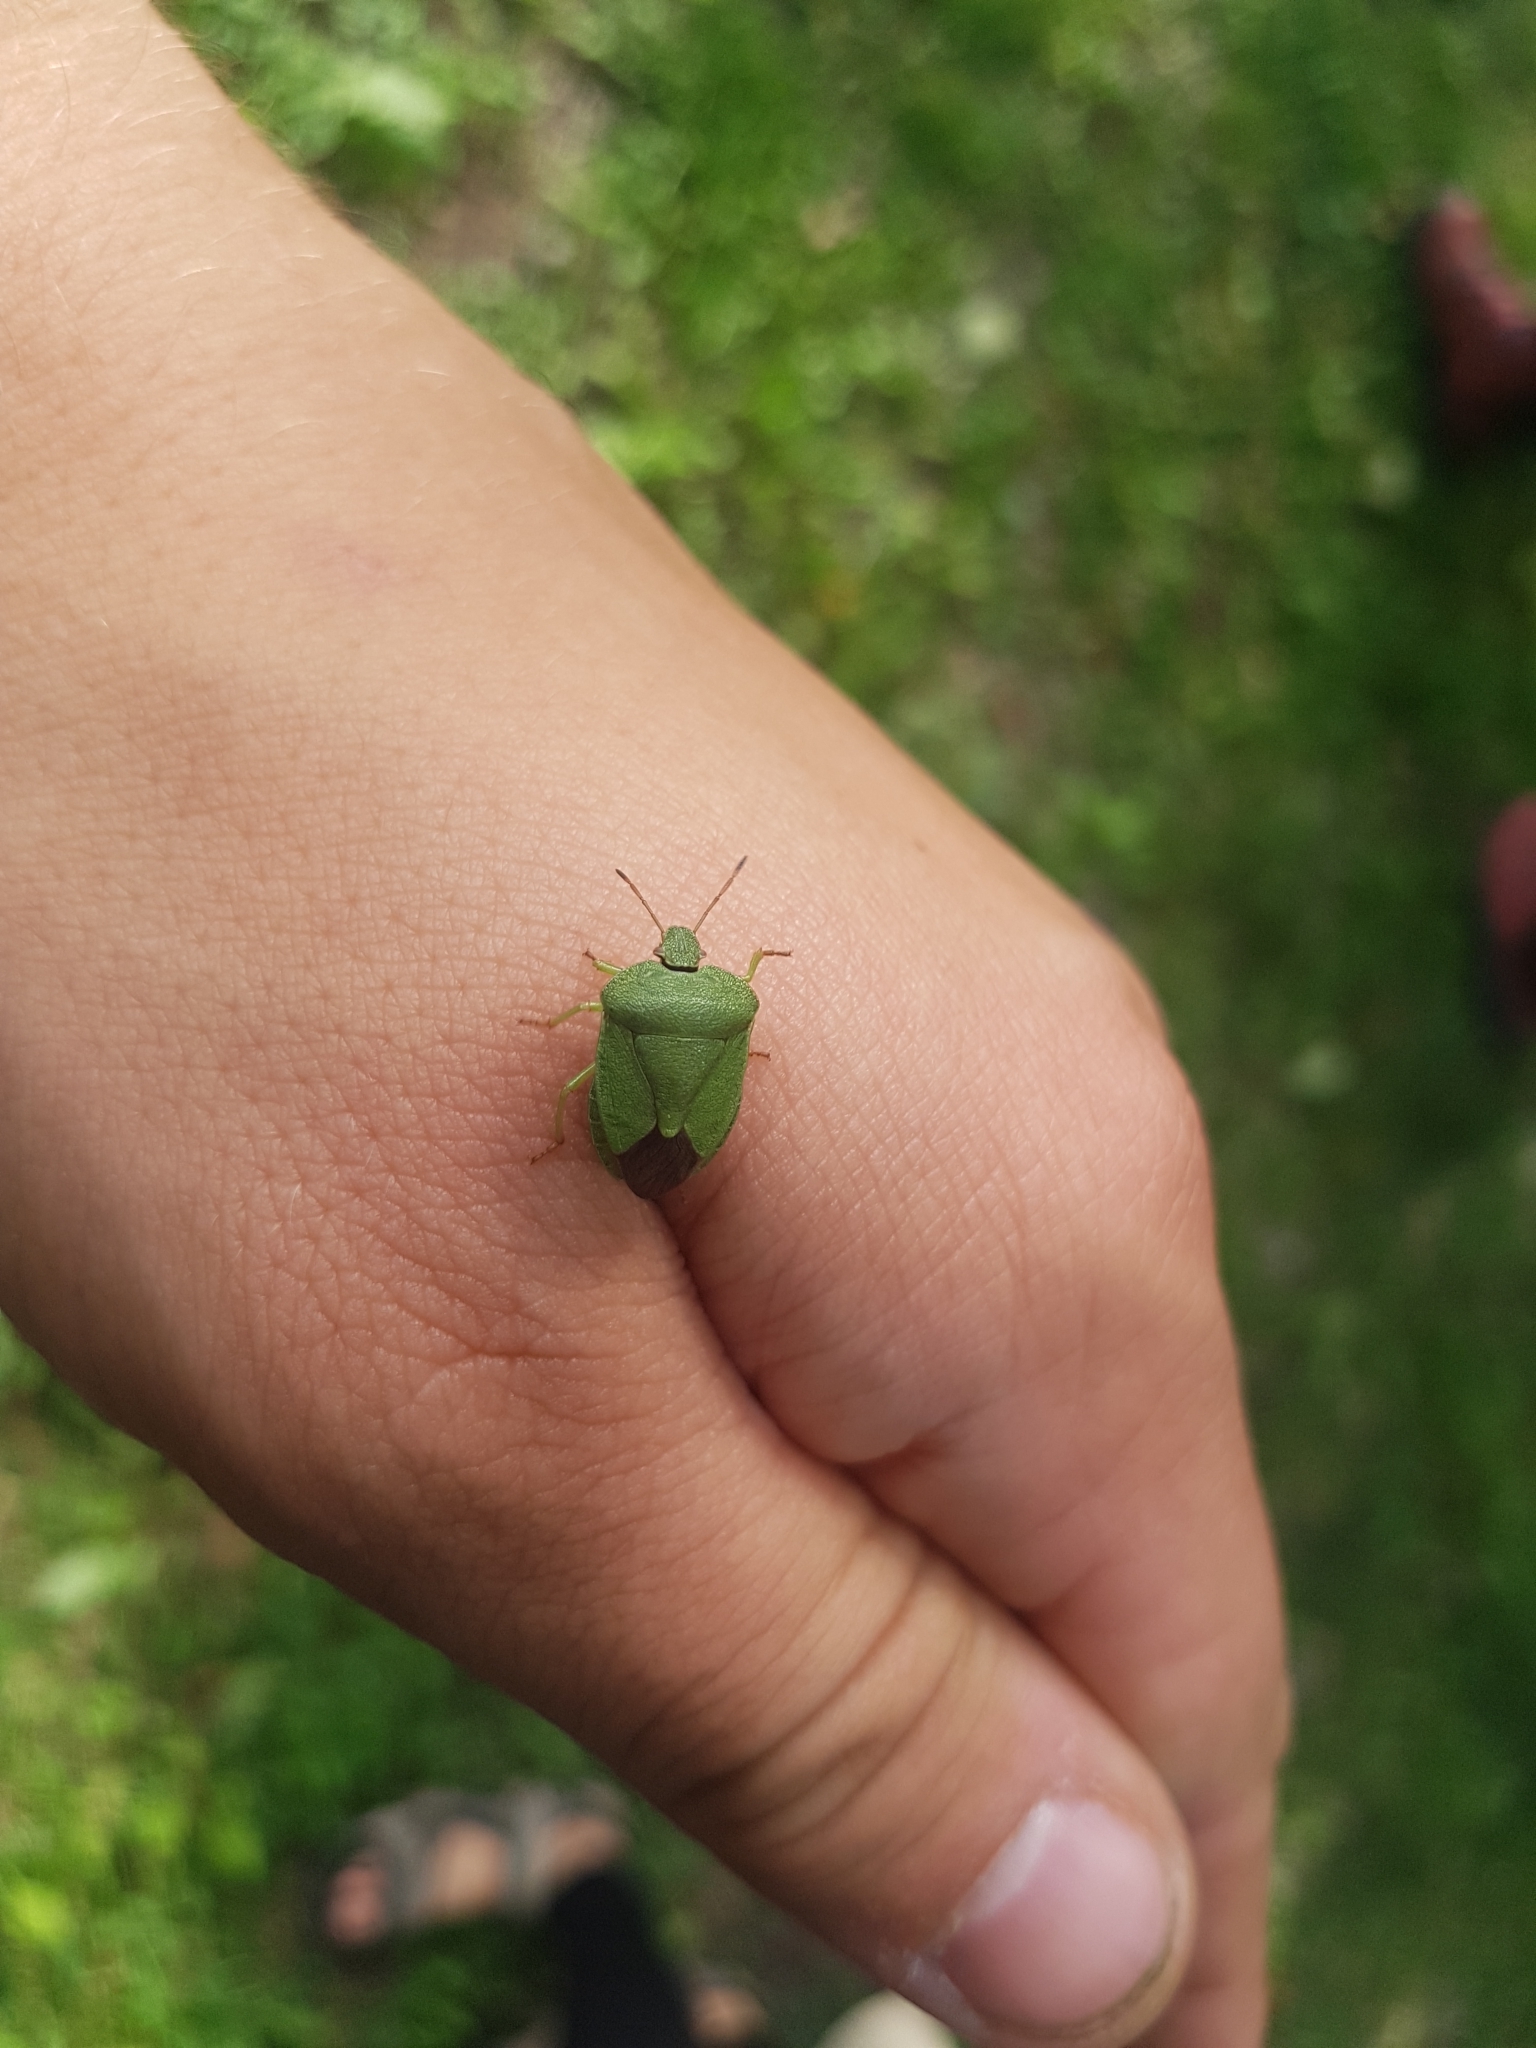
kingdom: Animalia
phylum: Arthropoda
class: Insecta
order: Hemiptera
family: Pentatomidae
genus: Palomena
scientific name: Palomena prasina
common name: Green shieldbug
